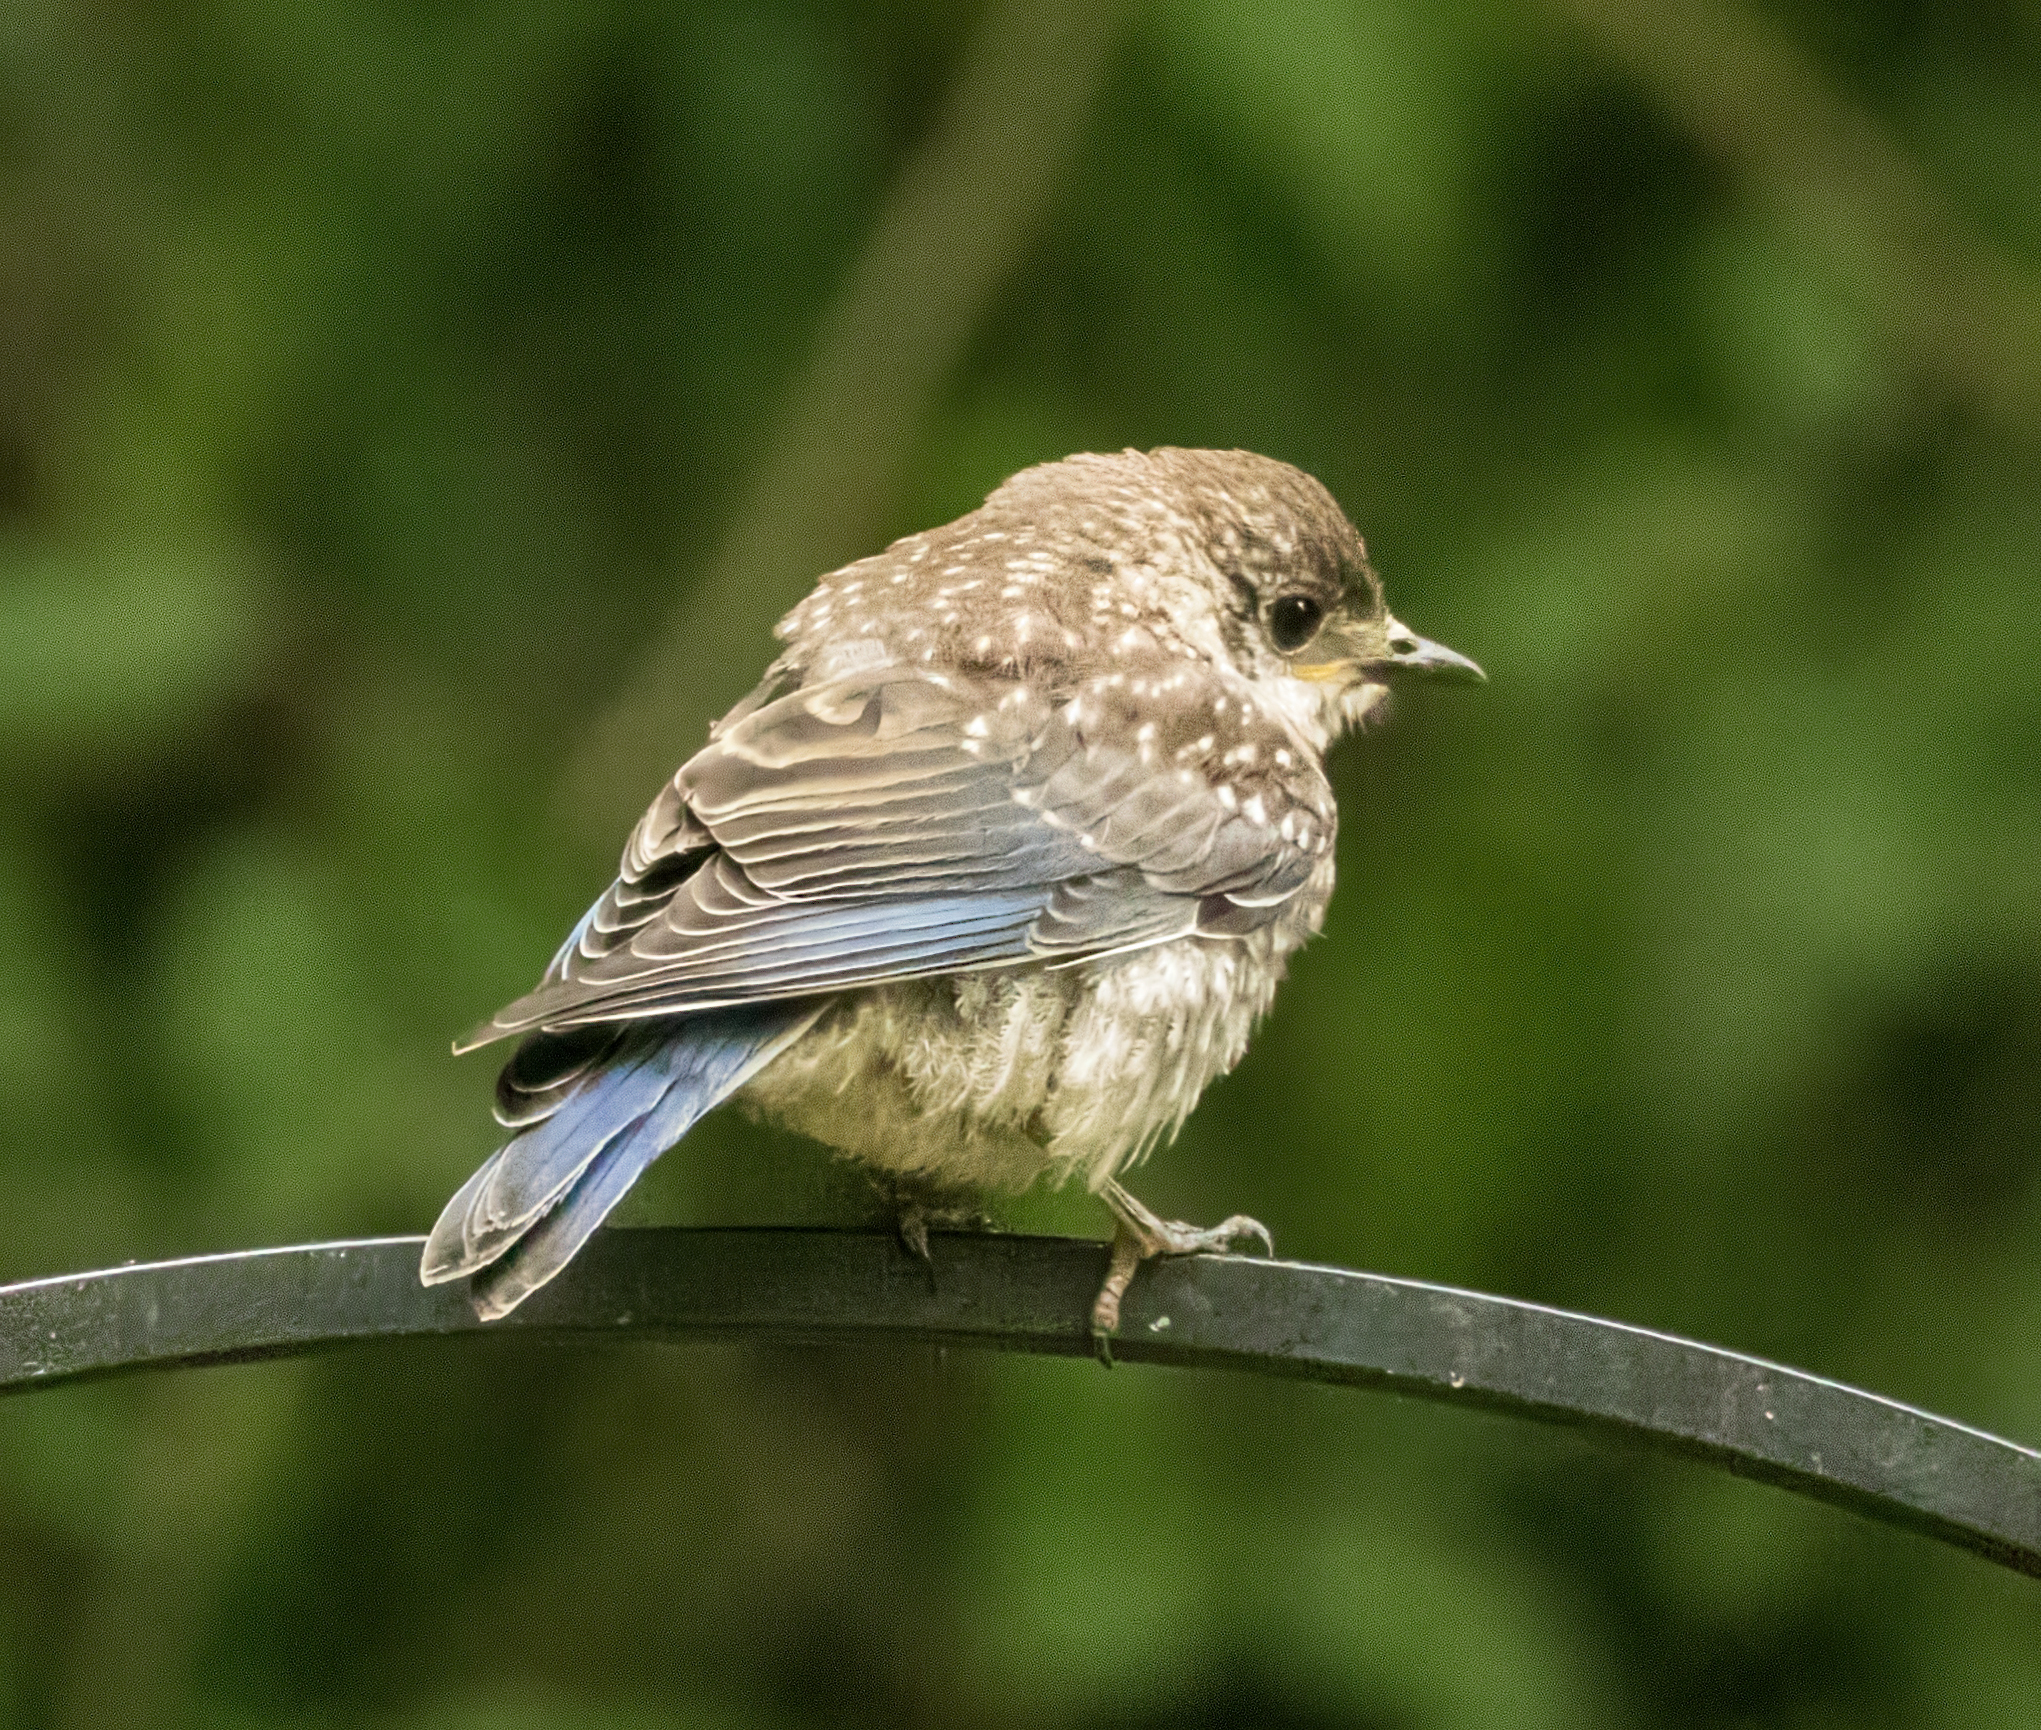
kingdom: Animalia
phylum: Chordata
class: Aves
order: Passeriformes
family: Turdidae
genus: Sialia
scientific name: Sialia sialis
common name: Eastern bluebird
